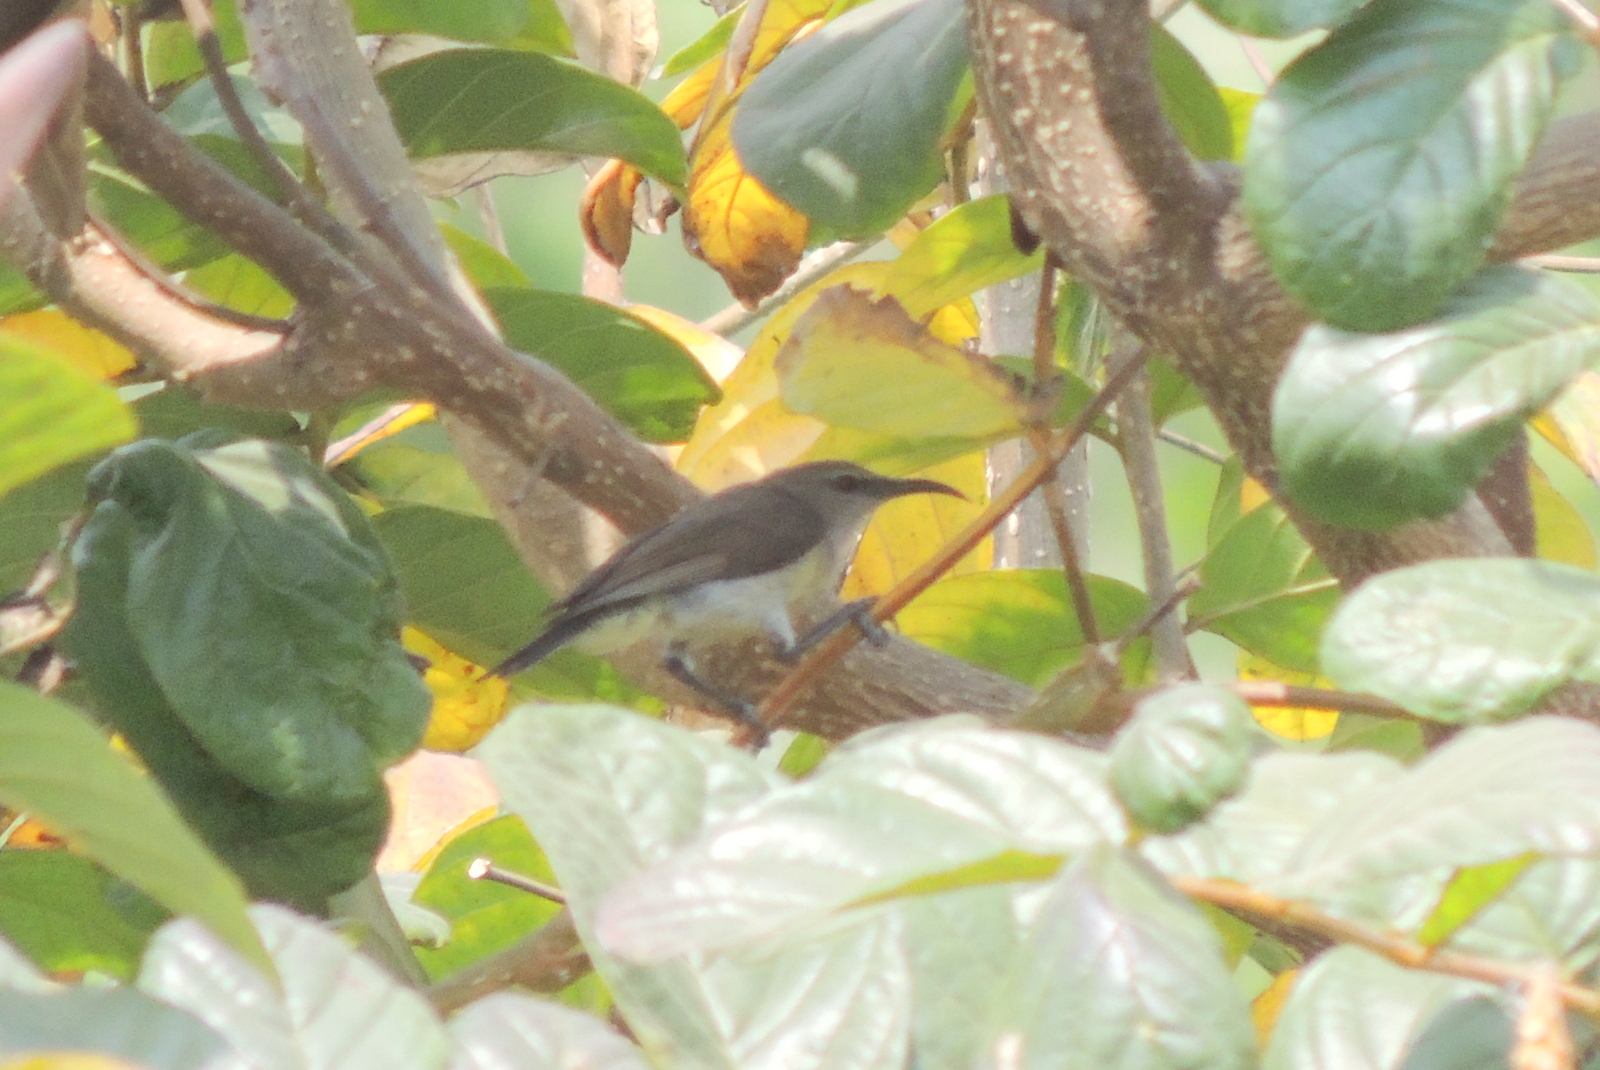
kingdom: Animalia
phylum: Chordata
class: Aves
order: Passeriformes
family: Nectariniidae
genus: Leptocoma
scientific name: Leptocoma zeylonica
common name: Purple-rumped sunbird
